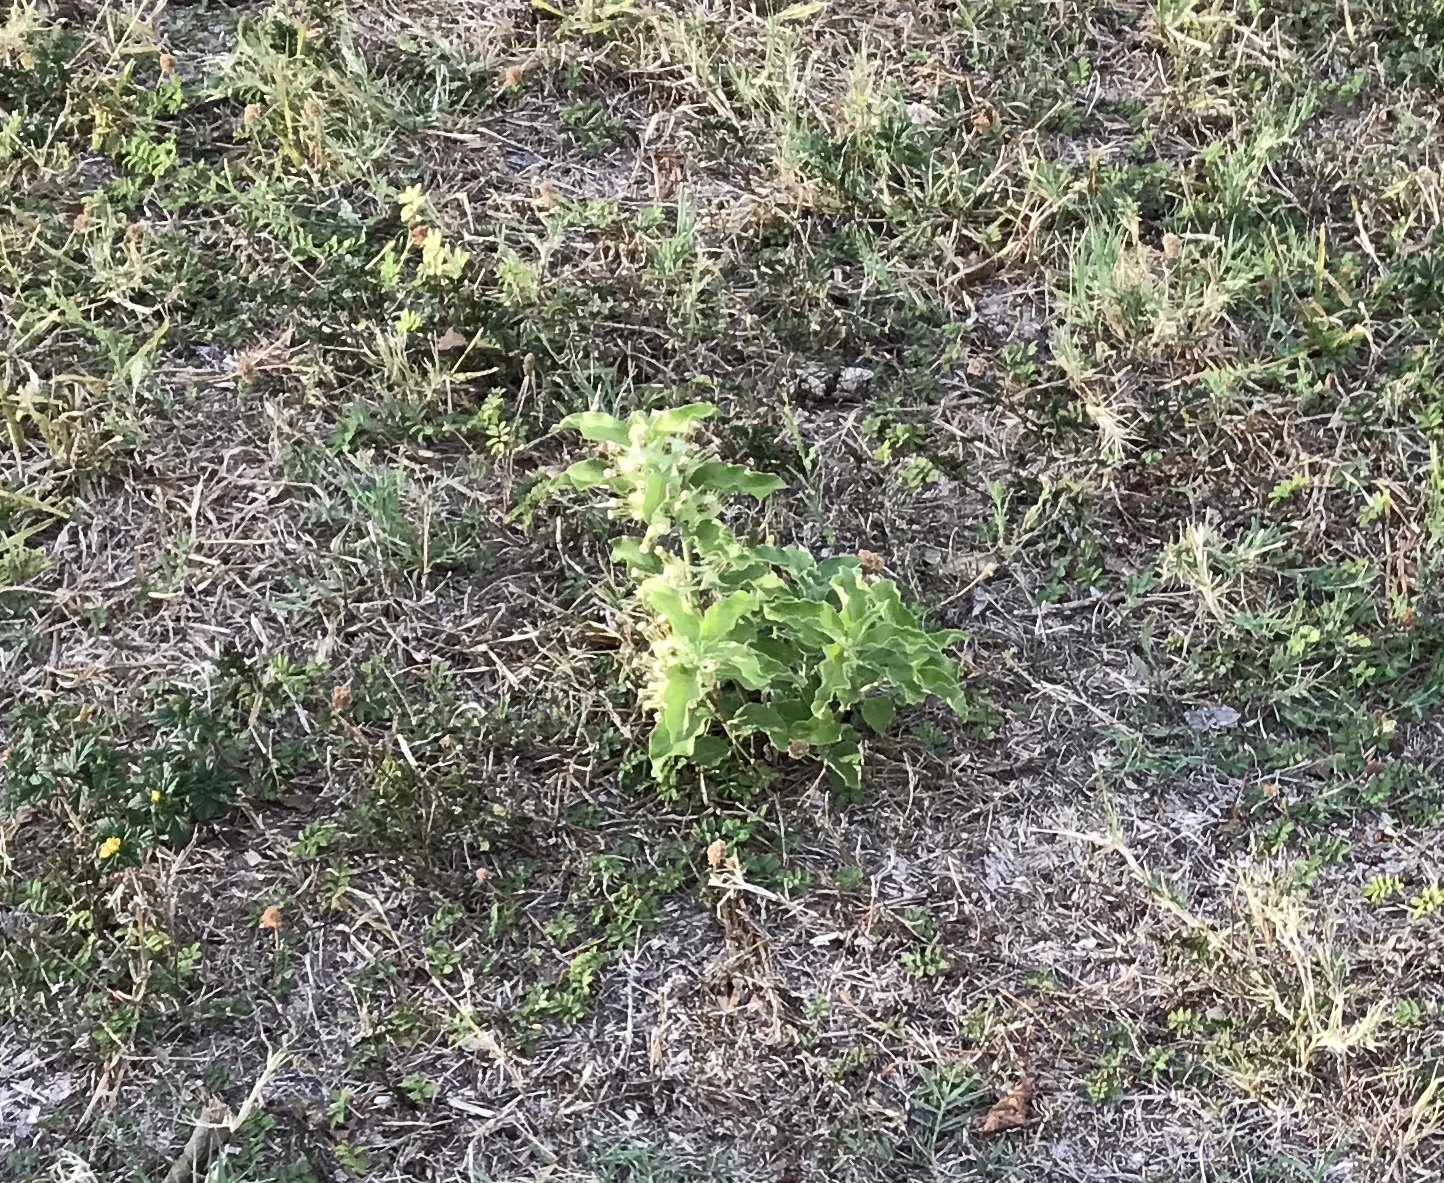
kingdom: Plantae
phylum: Tracheophyta
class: Magnoliopsida
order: Gentianales
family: Apocynaceae
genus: Asclepias
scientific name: Asclepias oenotheroides
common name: Zizotes milkweed
